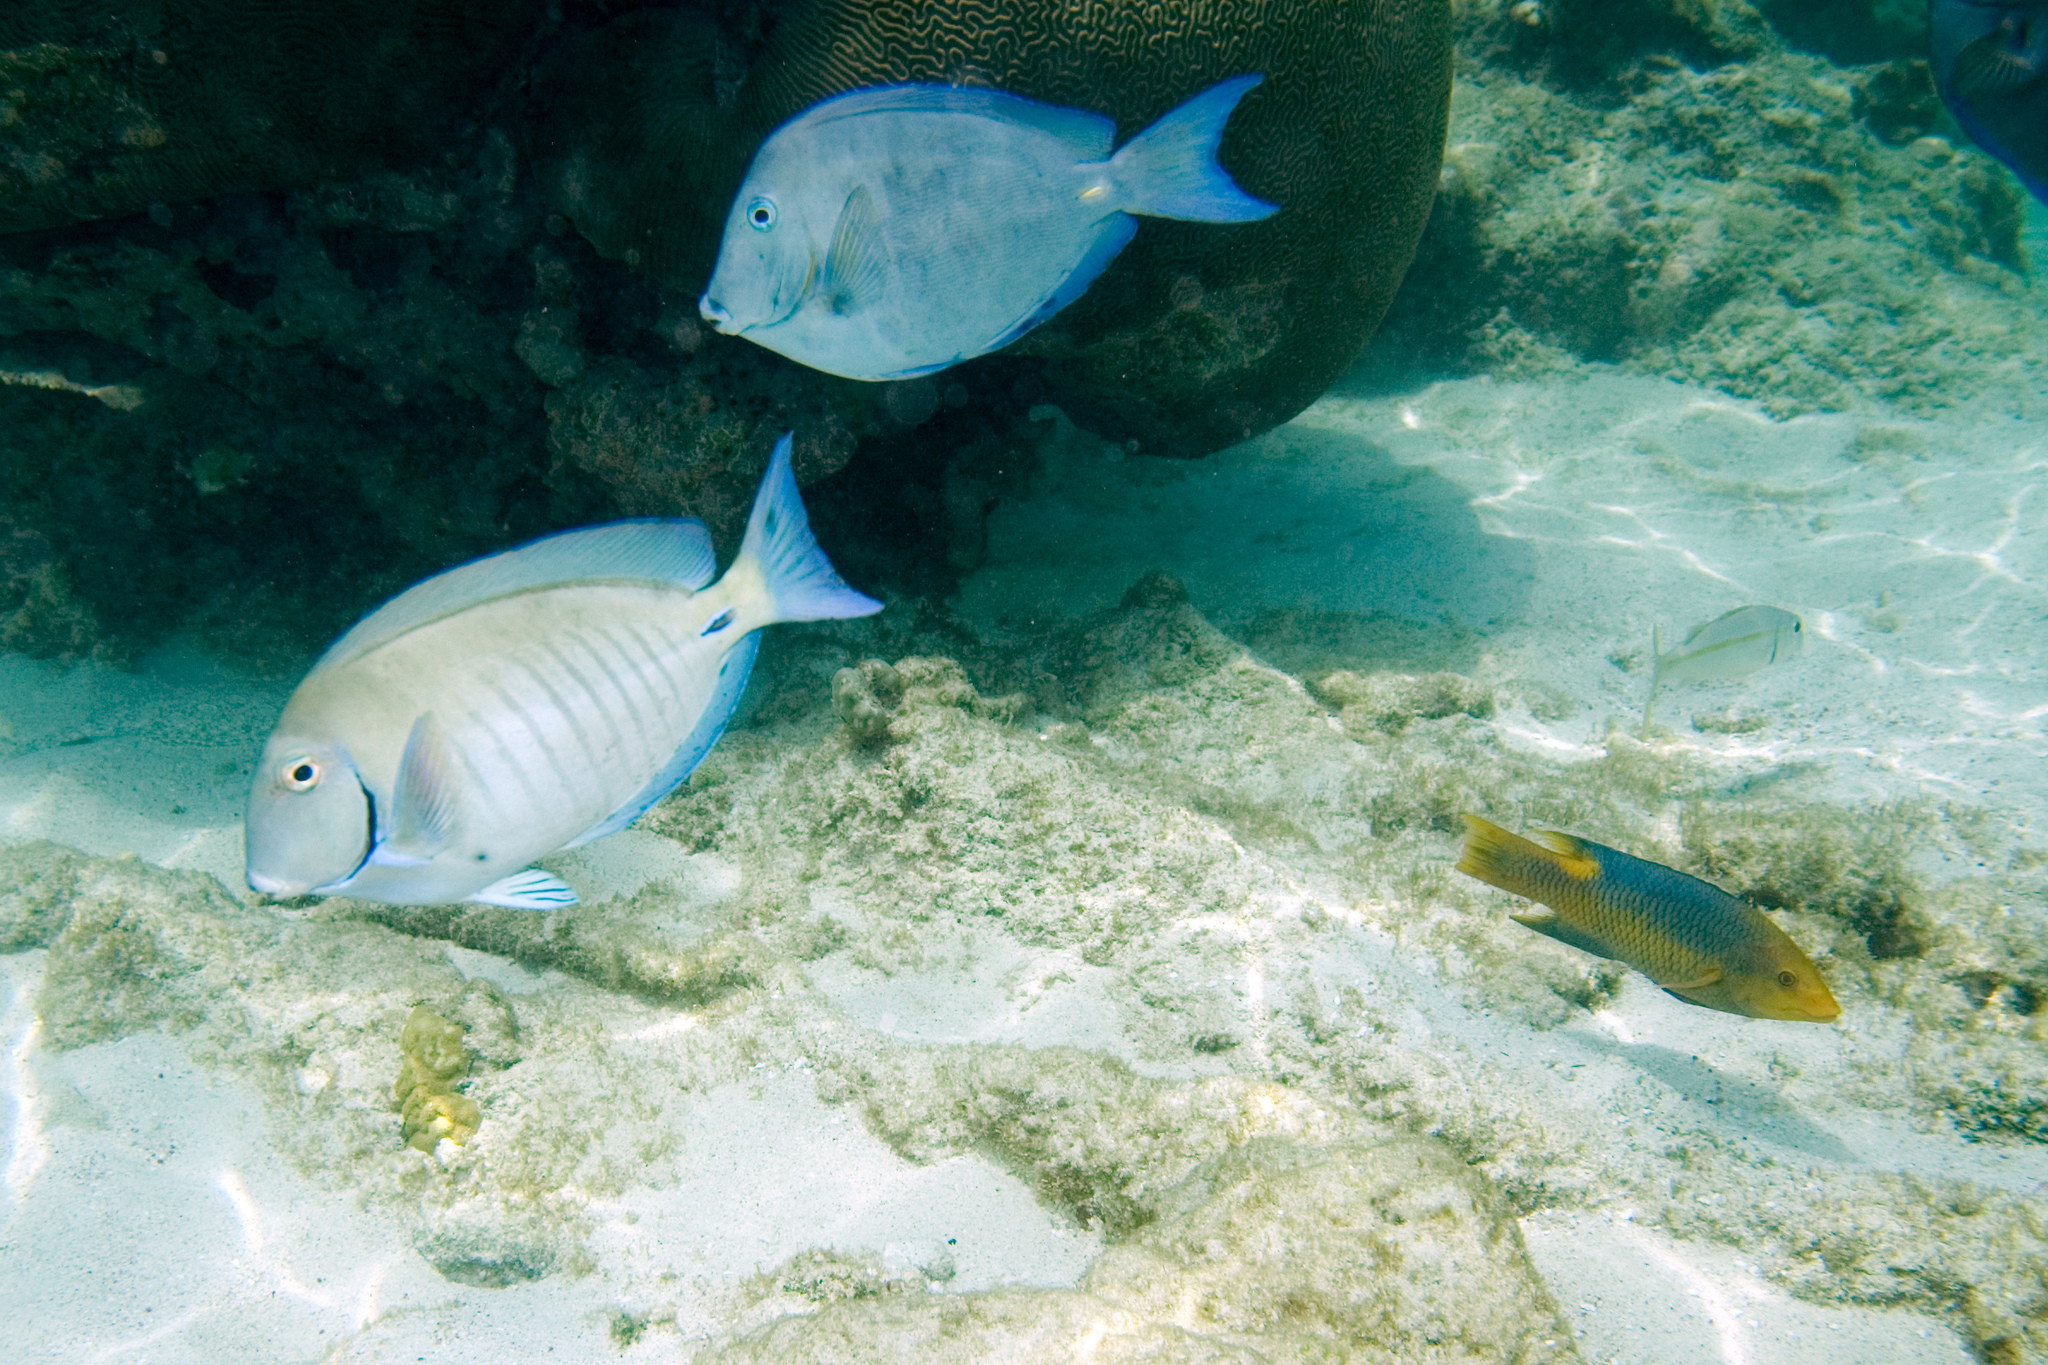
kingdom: Animalia
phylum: Chordata
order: Perciformes
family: Acanthuridae
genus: Acanthurus
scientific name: Acanthurus chirurgus
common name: Doctorfish
